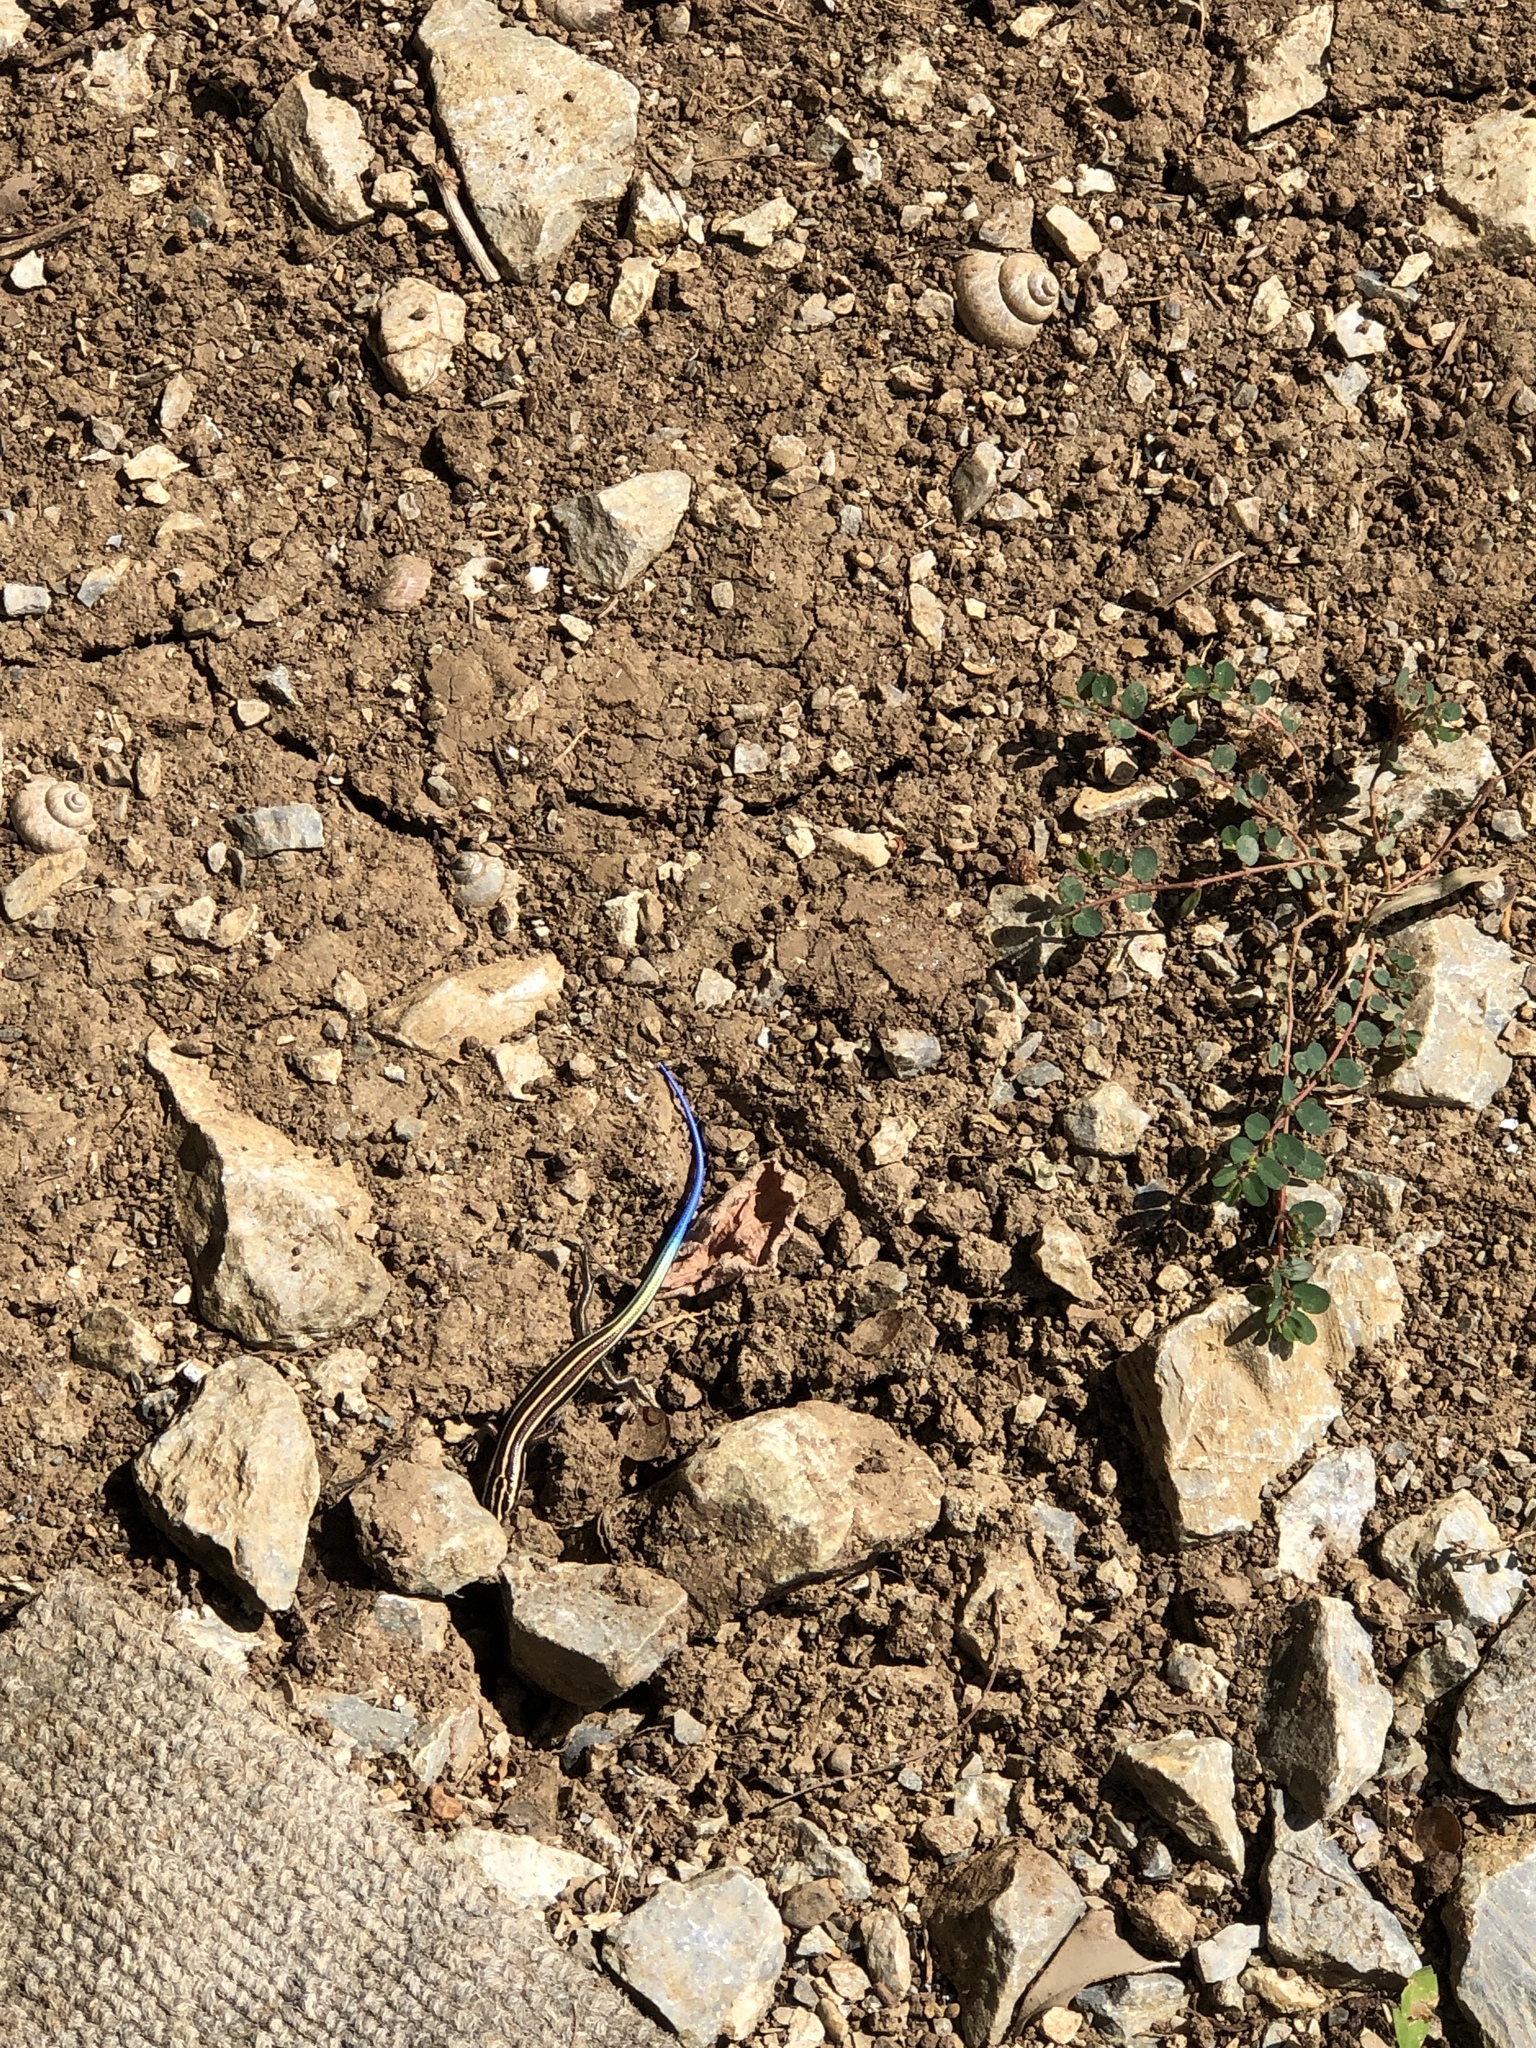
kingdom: Animalia
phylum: Chordata
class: Squamata
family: Scincidae
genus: Plestiodon
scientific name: Plestiodon marginatus
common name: Ousima skink
